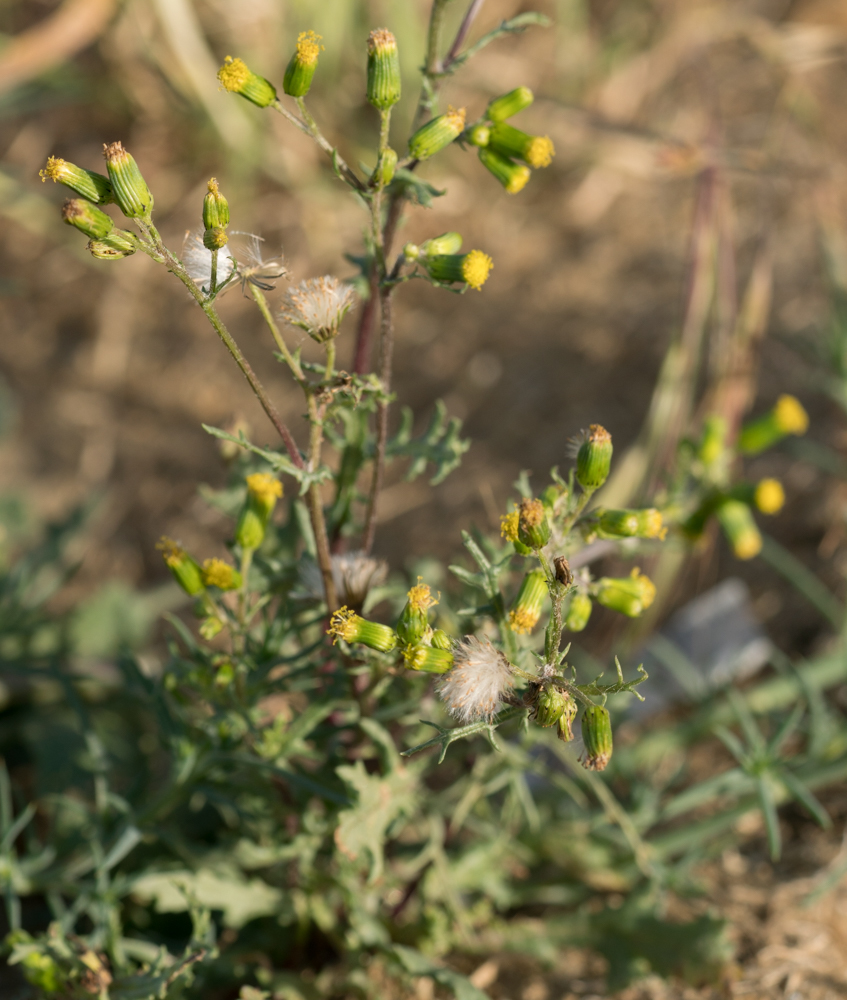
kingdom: Plantae
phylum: Tracheophyta
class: Magnoliopsida
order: Asterales
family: Asteraceae
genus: Senecio
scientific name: Senecio vulgaris
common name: Old-man-in-the-spring
